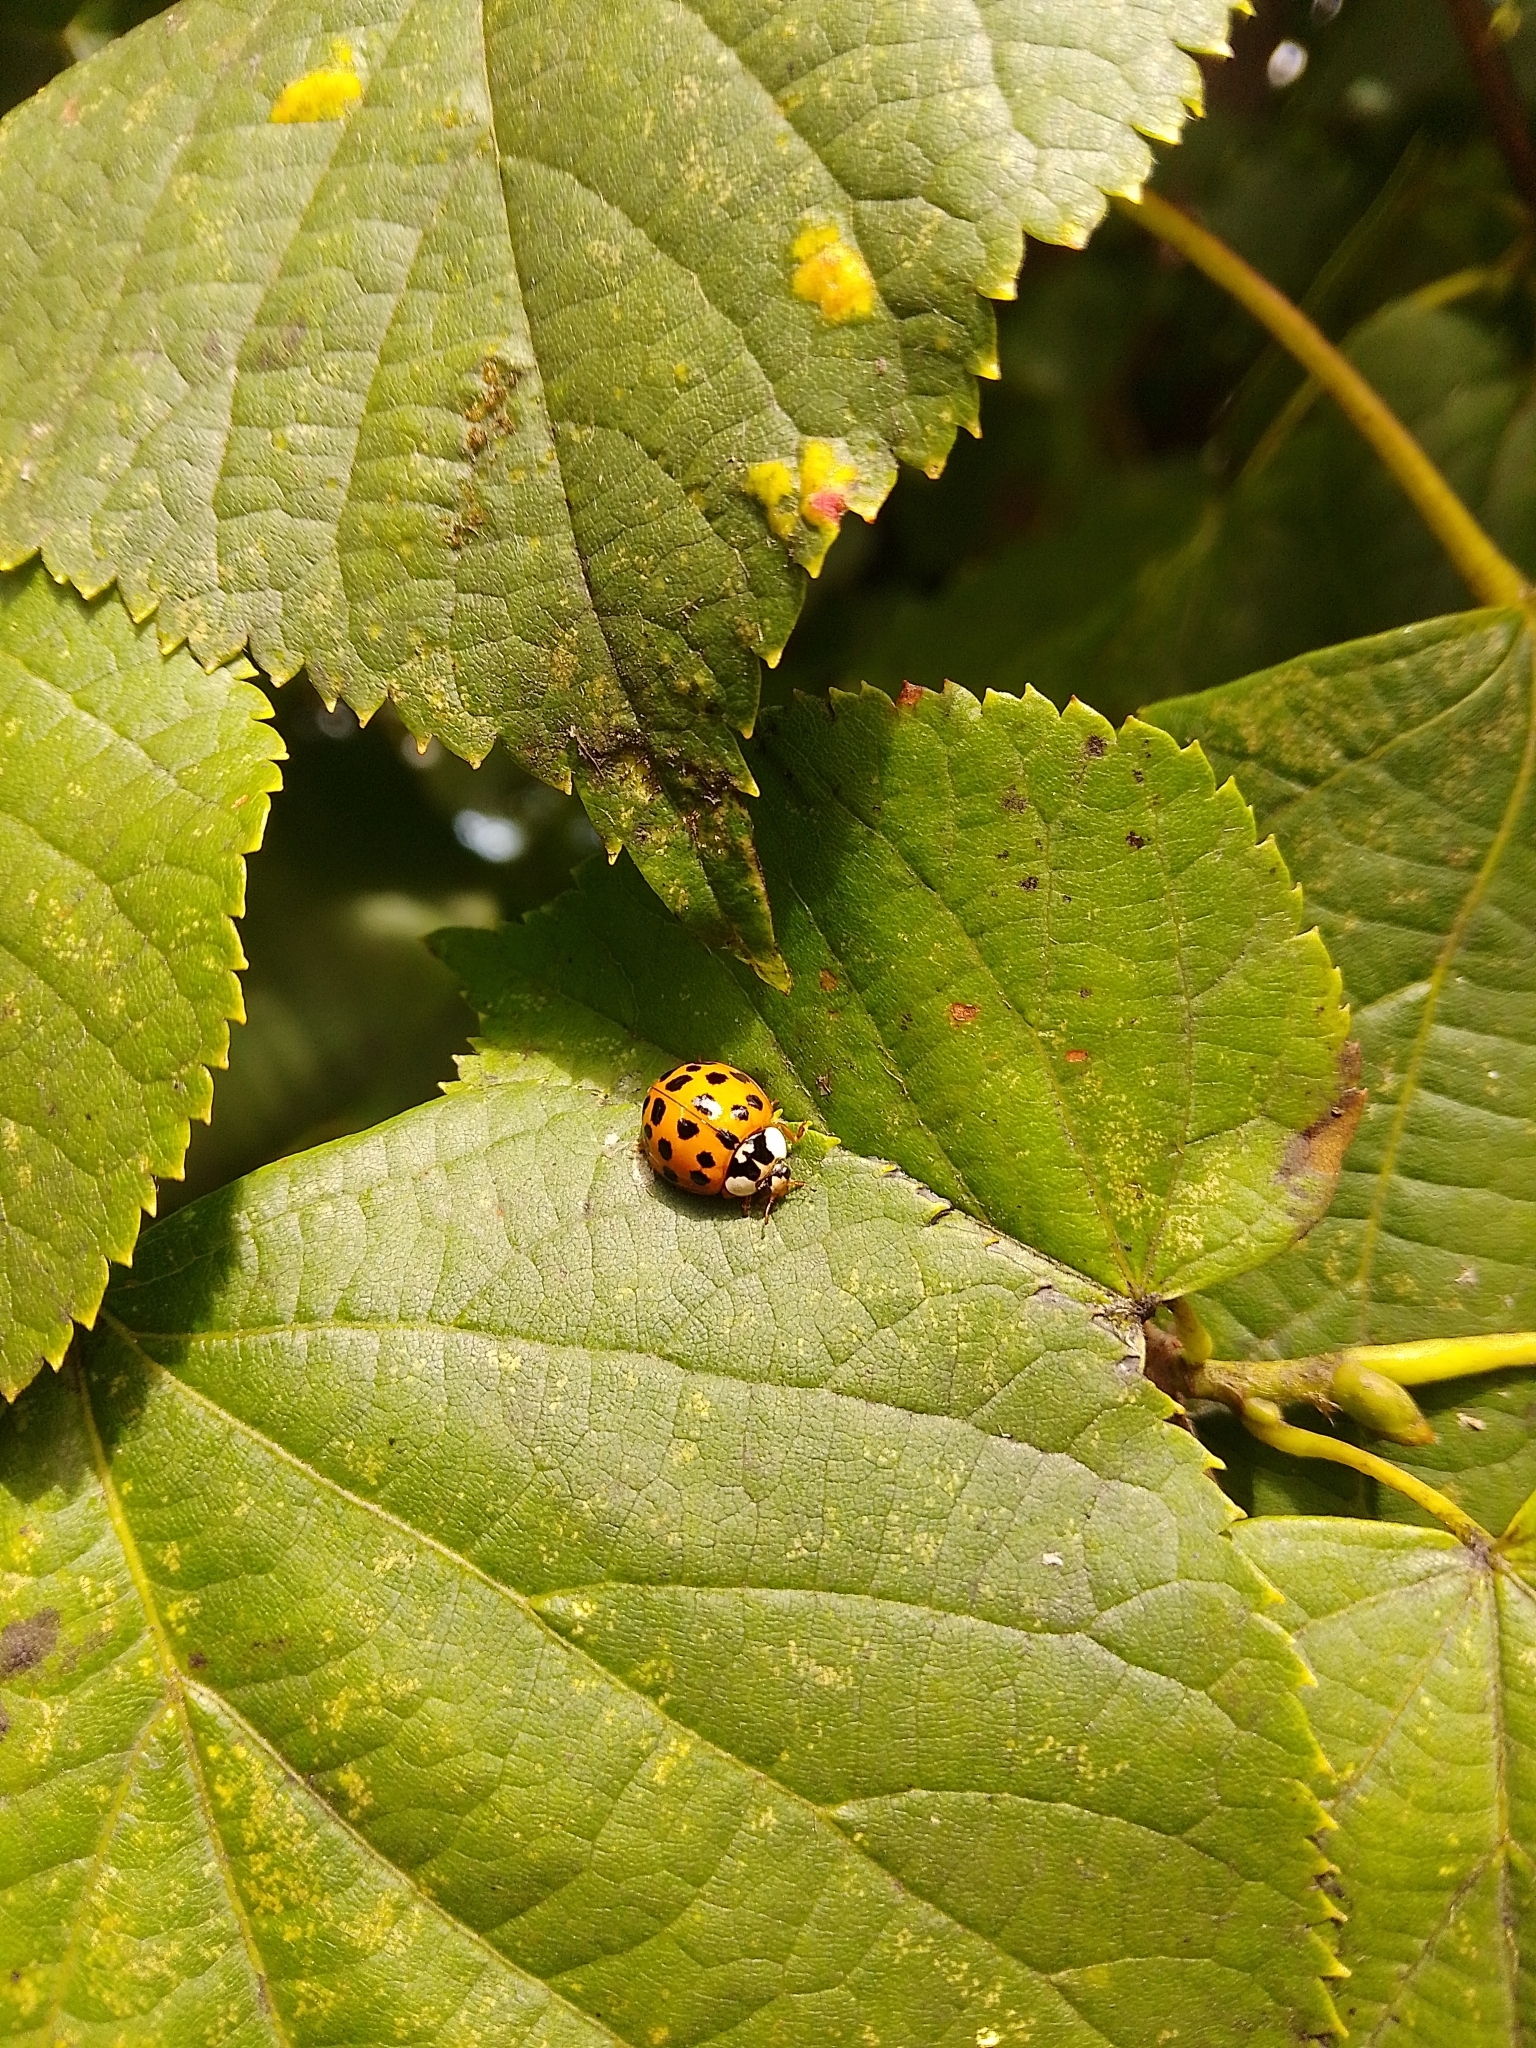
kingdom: Animalia
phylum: Arthropoda
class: Insecta
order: Coleoptera
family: Coccinellidae
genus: Harmonia
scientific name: Harmonia axyridis
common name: Harlequin ladybird
